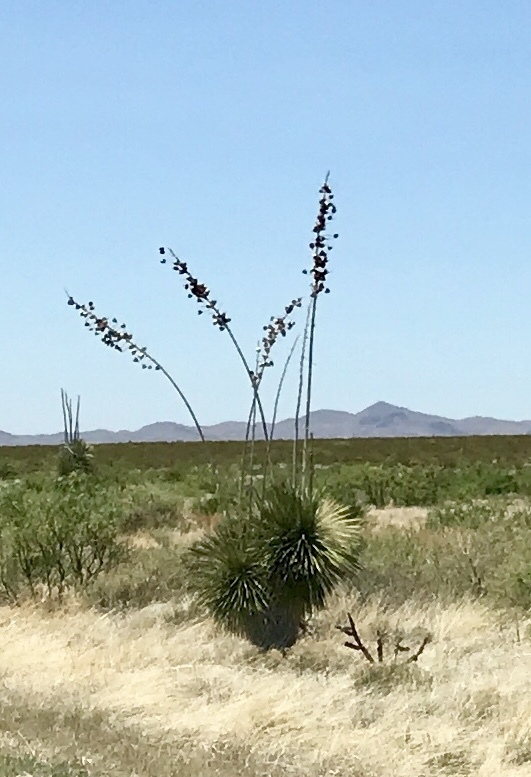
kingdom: Plantae
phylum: Tracheophyta
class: Liliopsida
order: Asparagales
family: Asparagaceae
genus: Yucca
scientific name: Yucca elata
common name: Palmella
